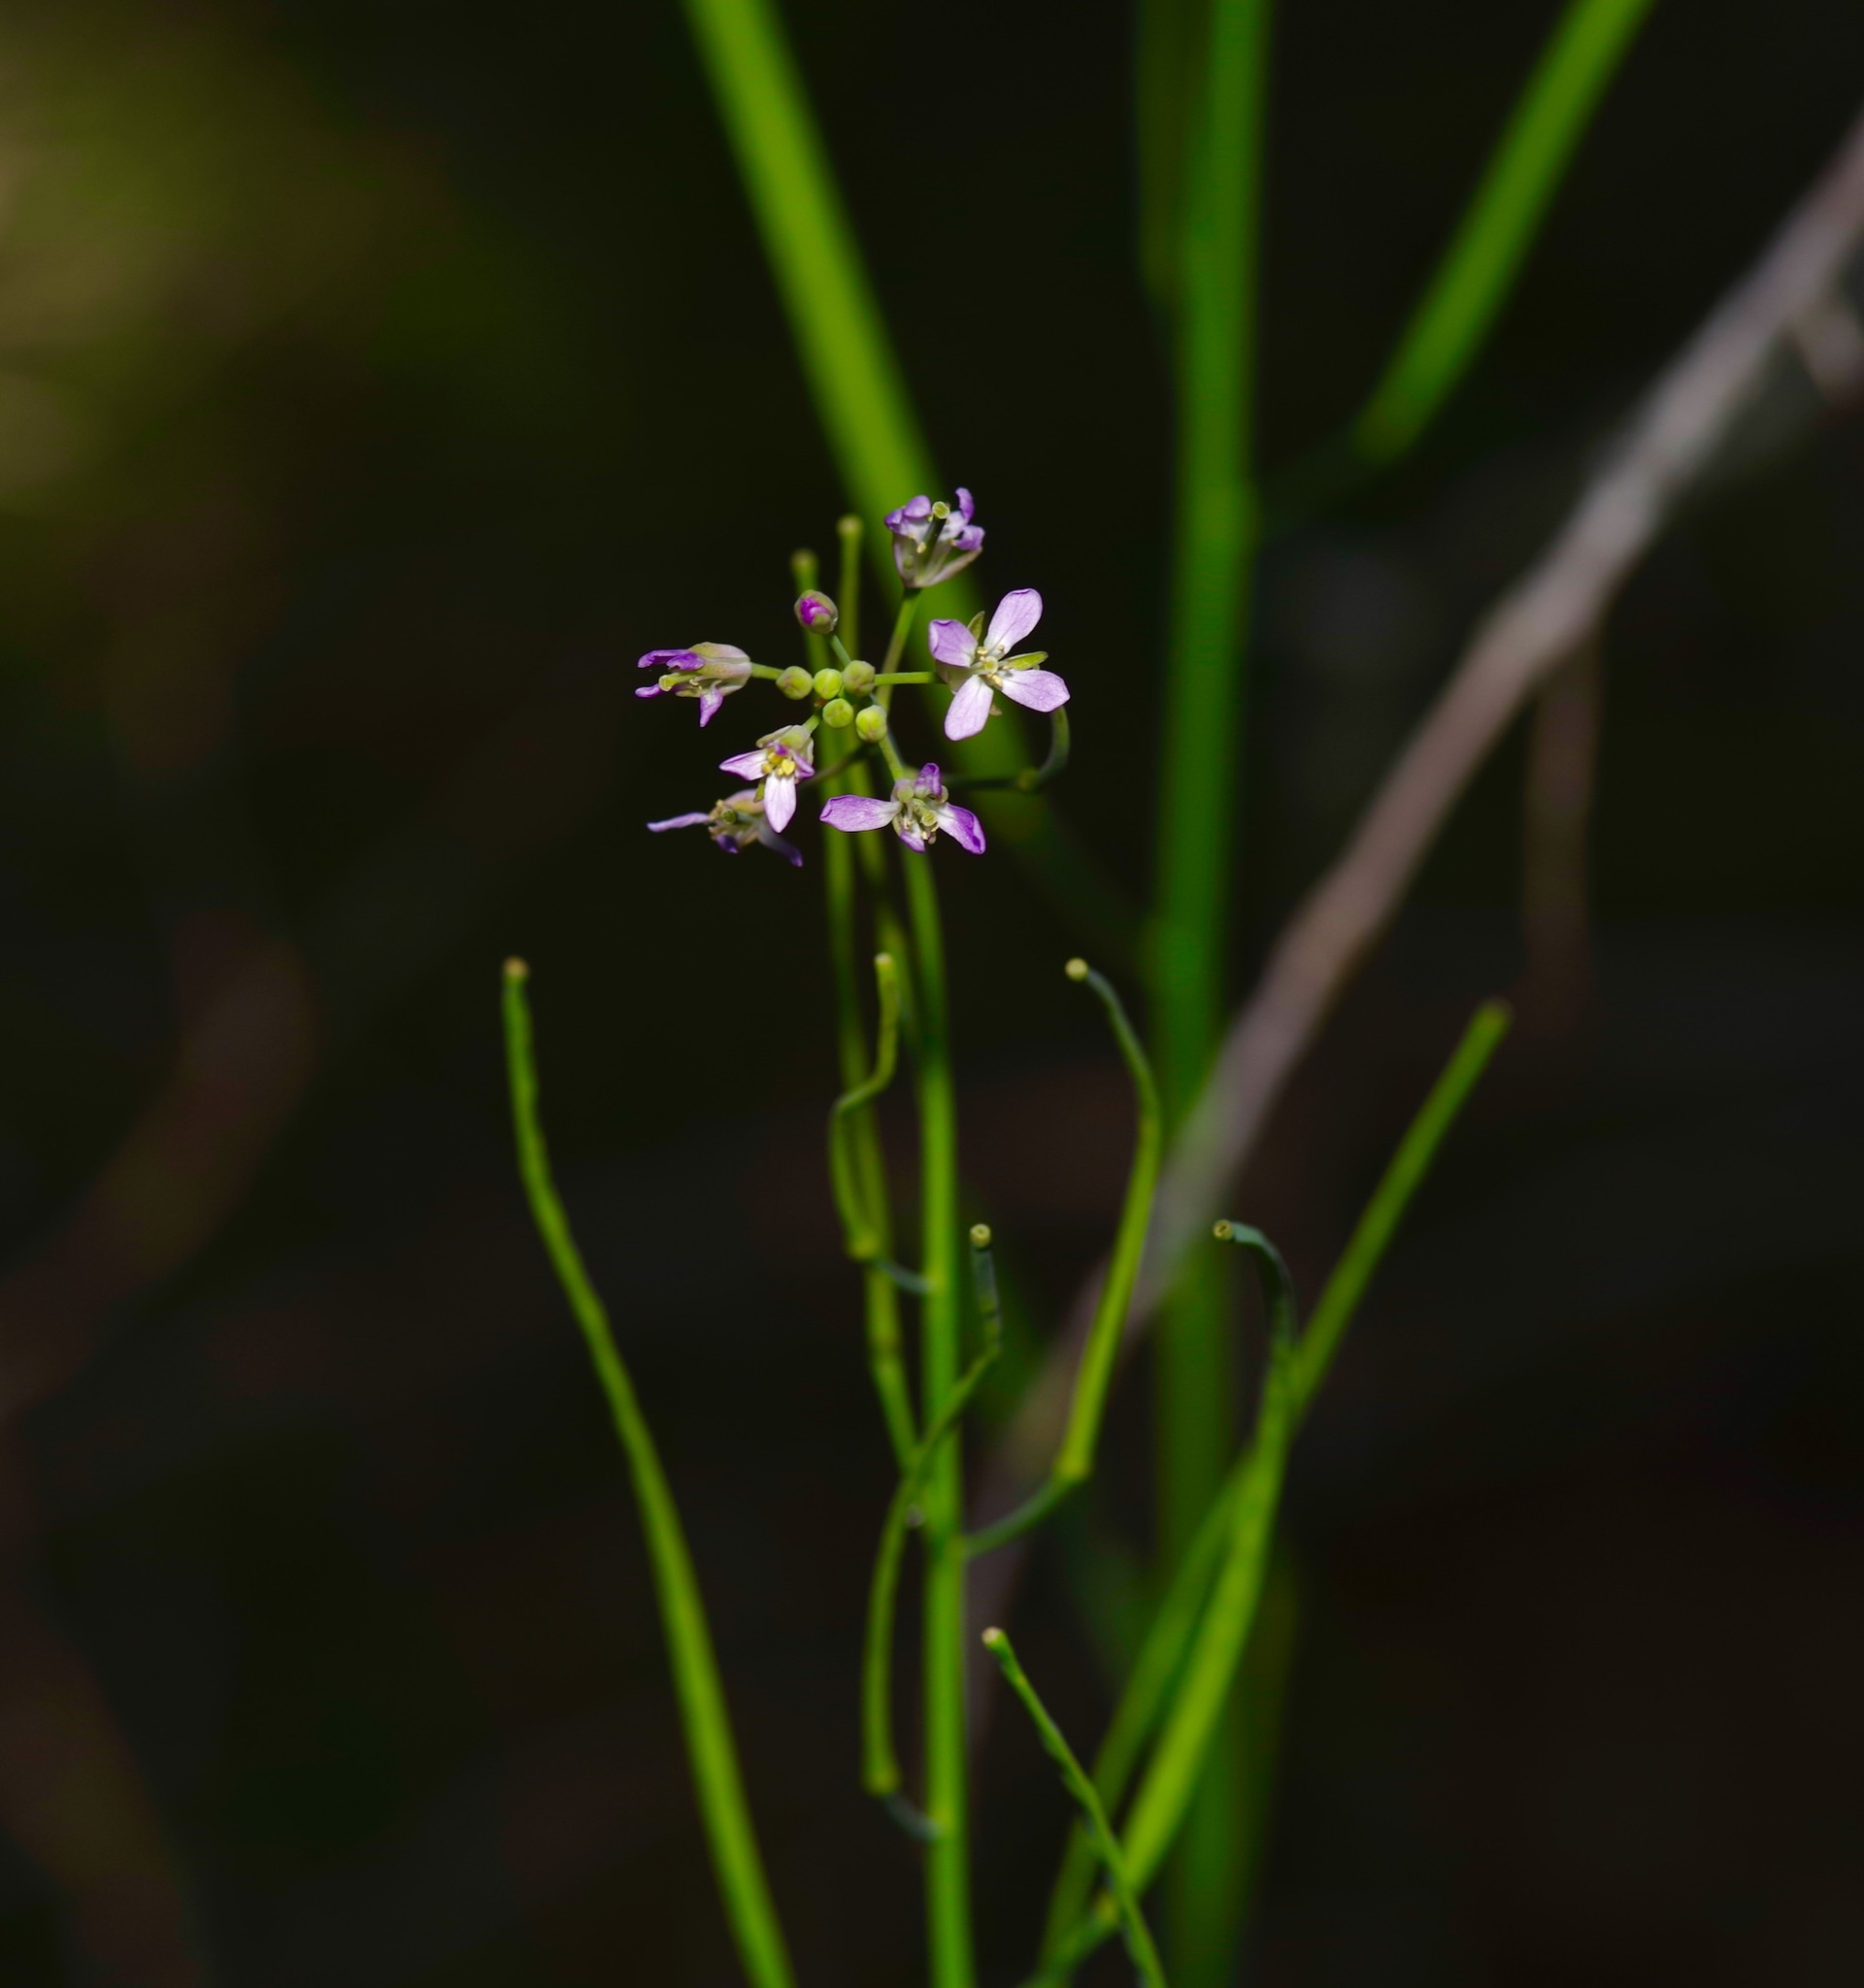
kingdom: Plantae
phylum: Tracheophyta
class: Magnoliopsida
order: Brassicales
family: Brassicaceae
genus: Streptanthus
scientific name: Streptanthus petiolaris
